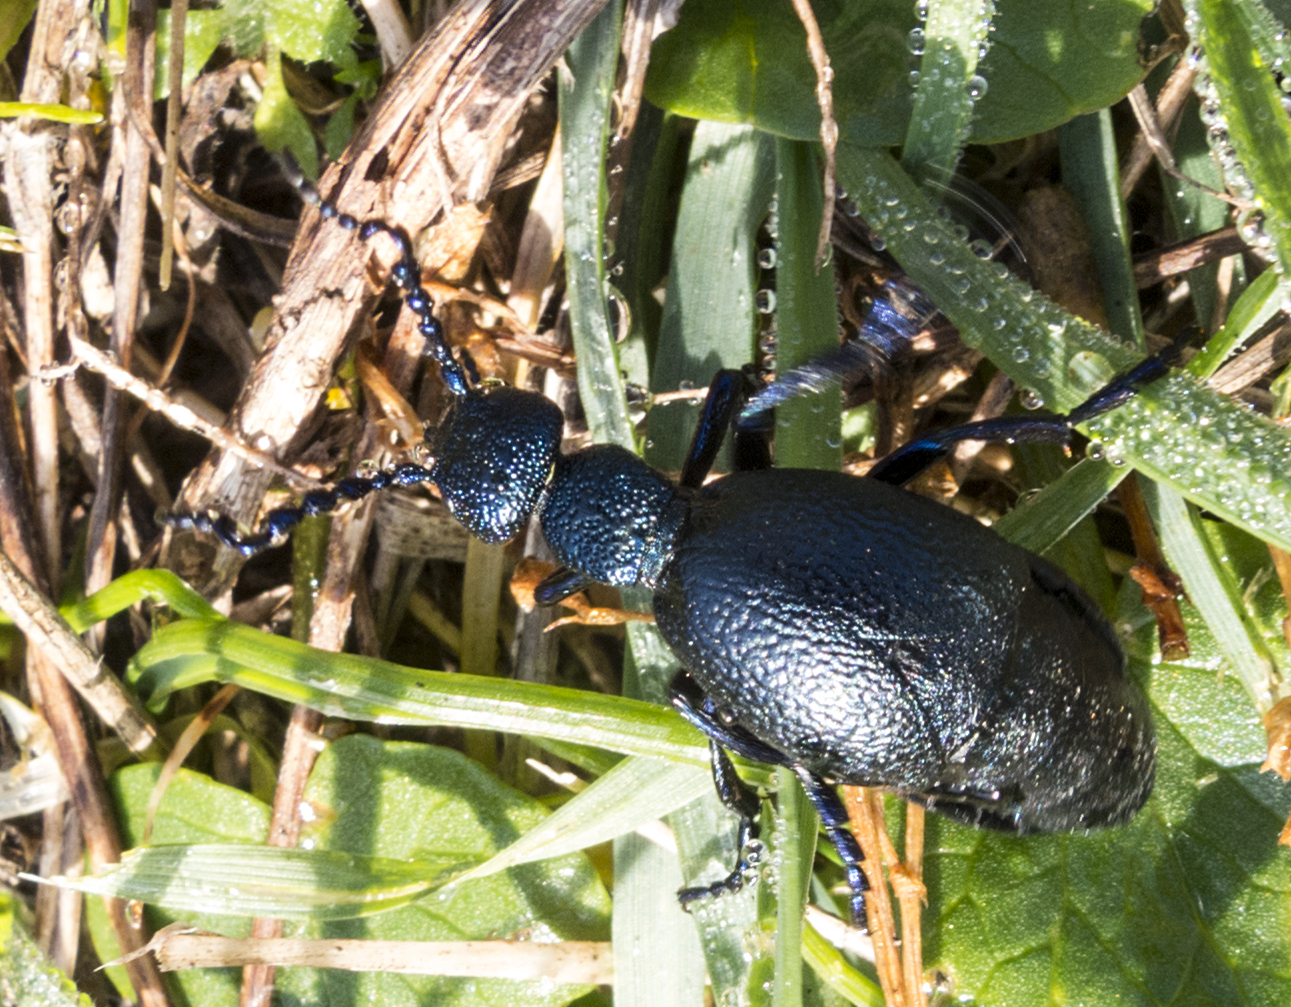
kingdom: Animalia
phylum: Arthropoda
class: Insecta
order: Coleoptera
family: Meloidae
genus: Meloe
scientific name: Meloe proscarabaeus
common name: Black oil-beetle
